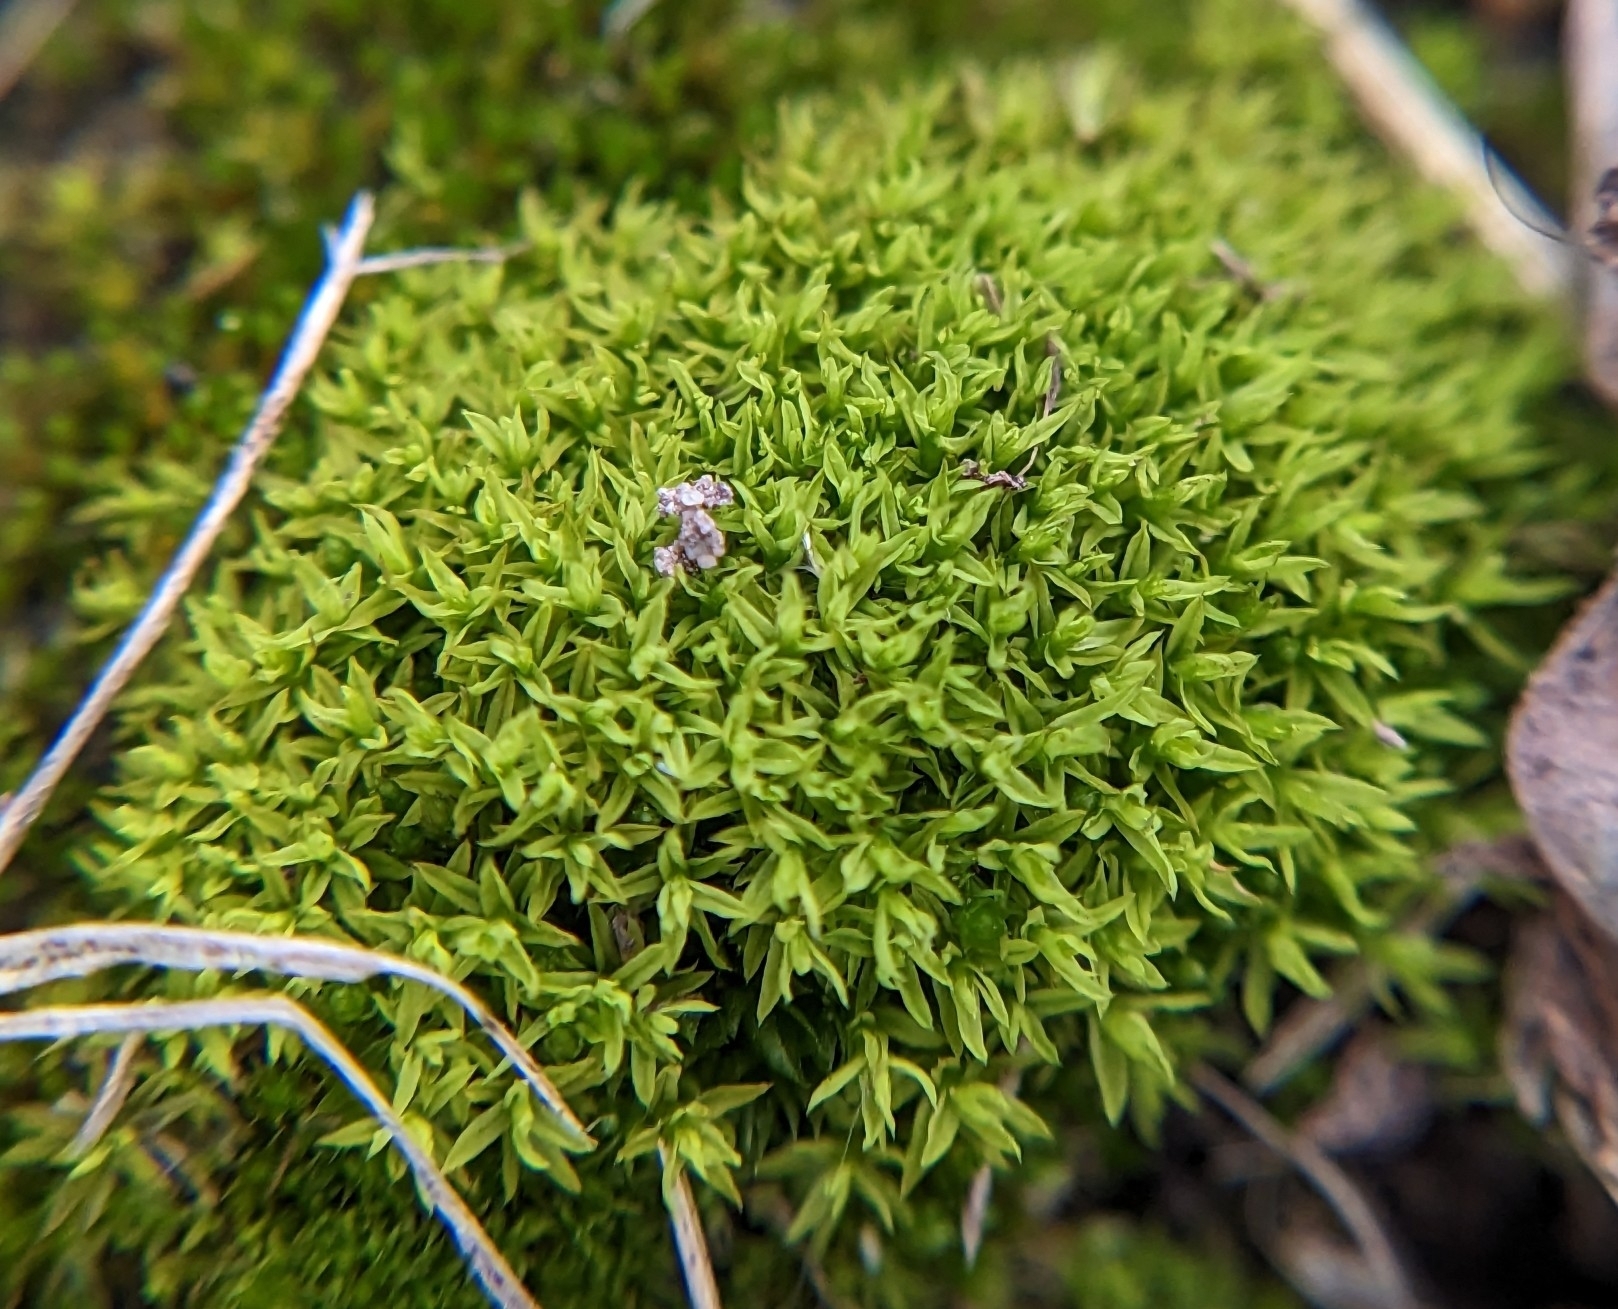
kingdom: Plantae
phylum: Bryophyta
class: Bryopsida
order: Pottiales
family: Pottiaceae
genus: Barbula
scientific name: Barbula unguiculata
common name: Prickly beard moss
